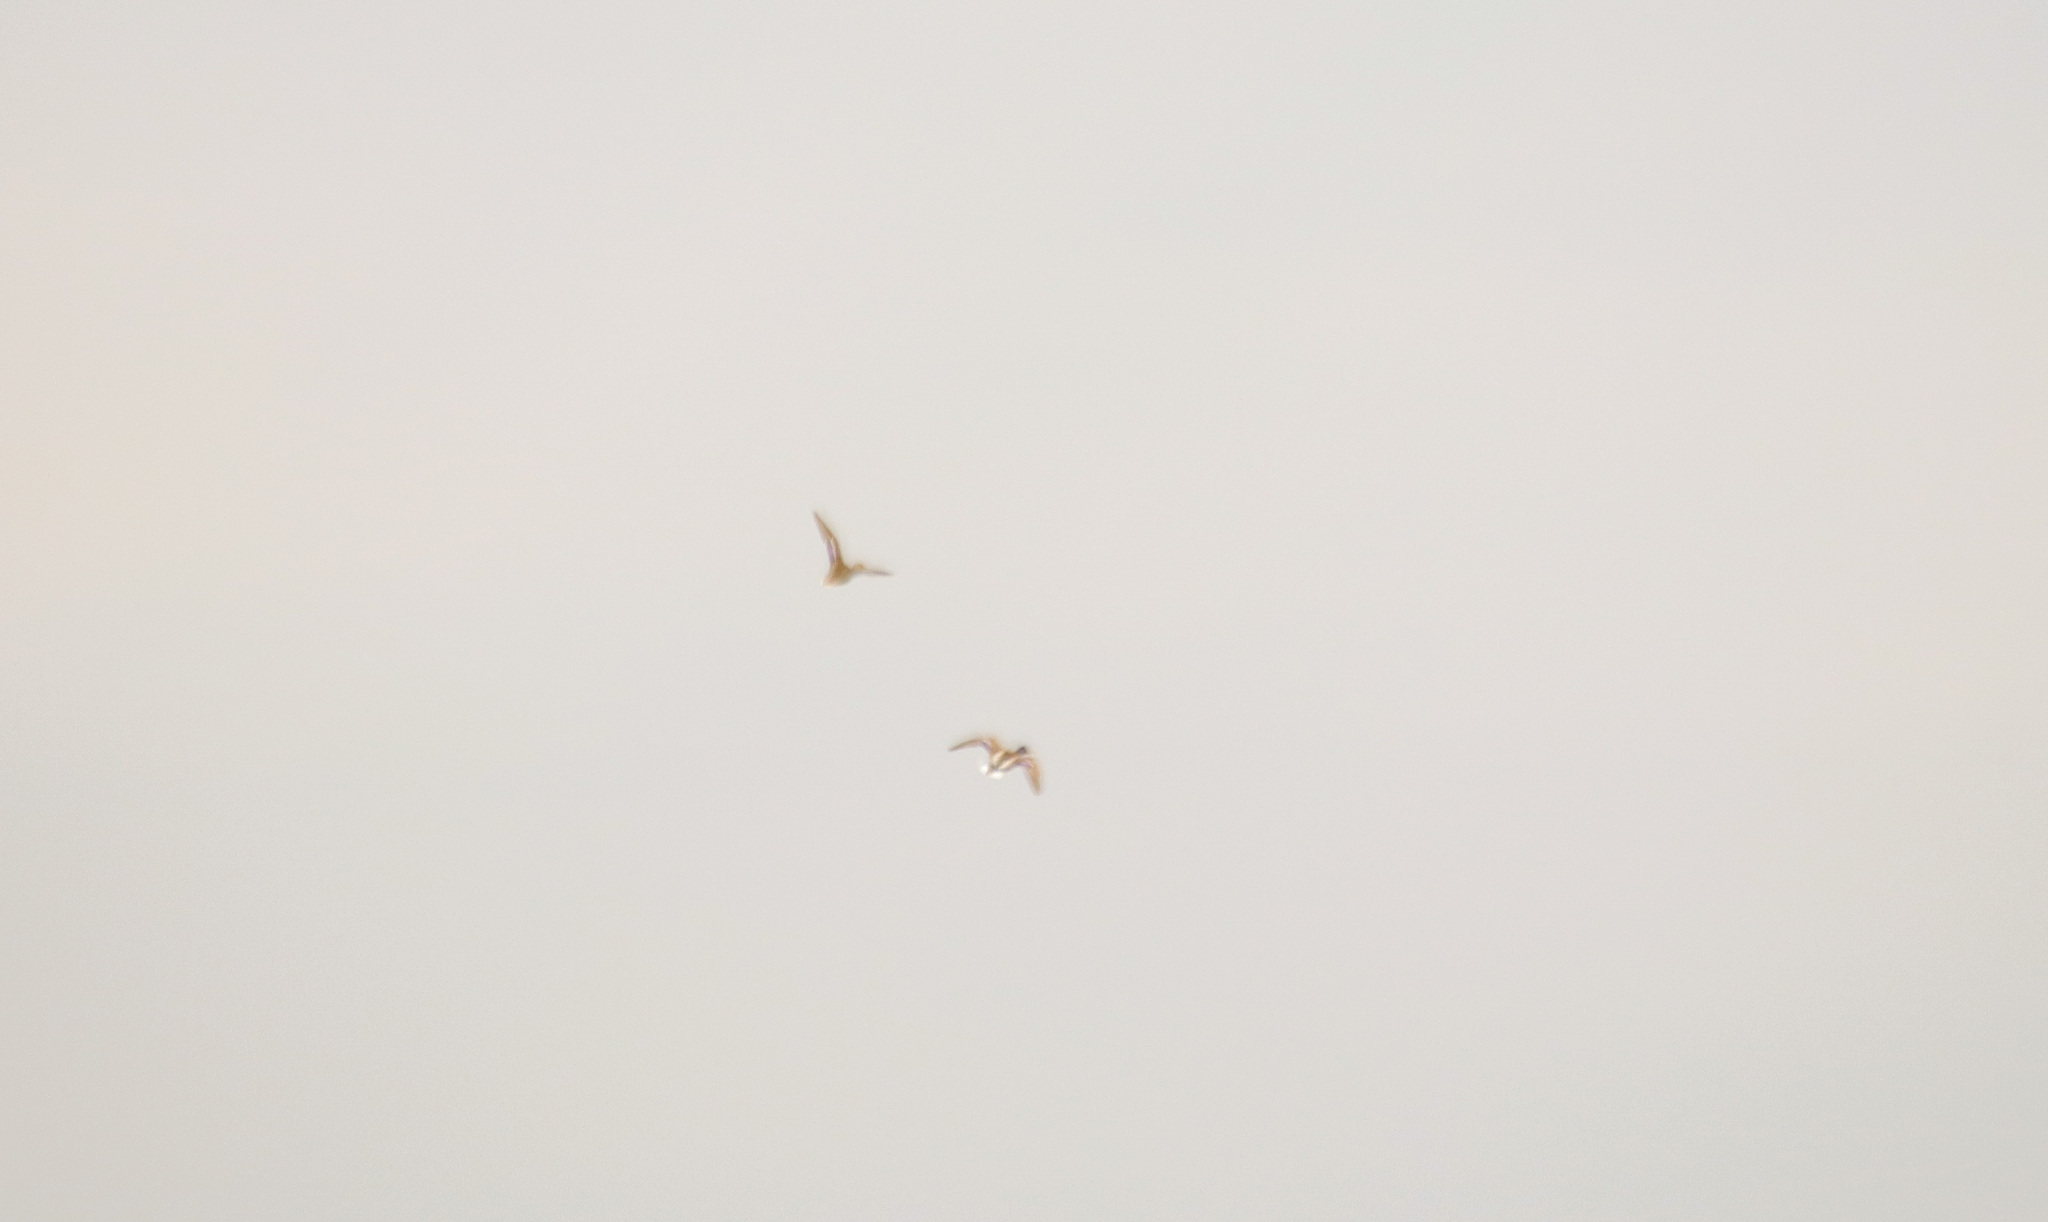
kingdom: Animalia
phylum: Chordata
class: Aves
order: Anseriformes
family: Anatidae
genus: Anas
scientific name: Anas platyrhynchos
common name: Mallard
